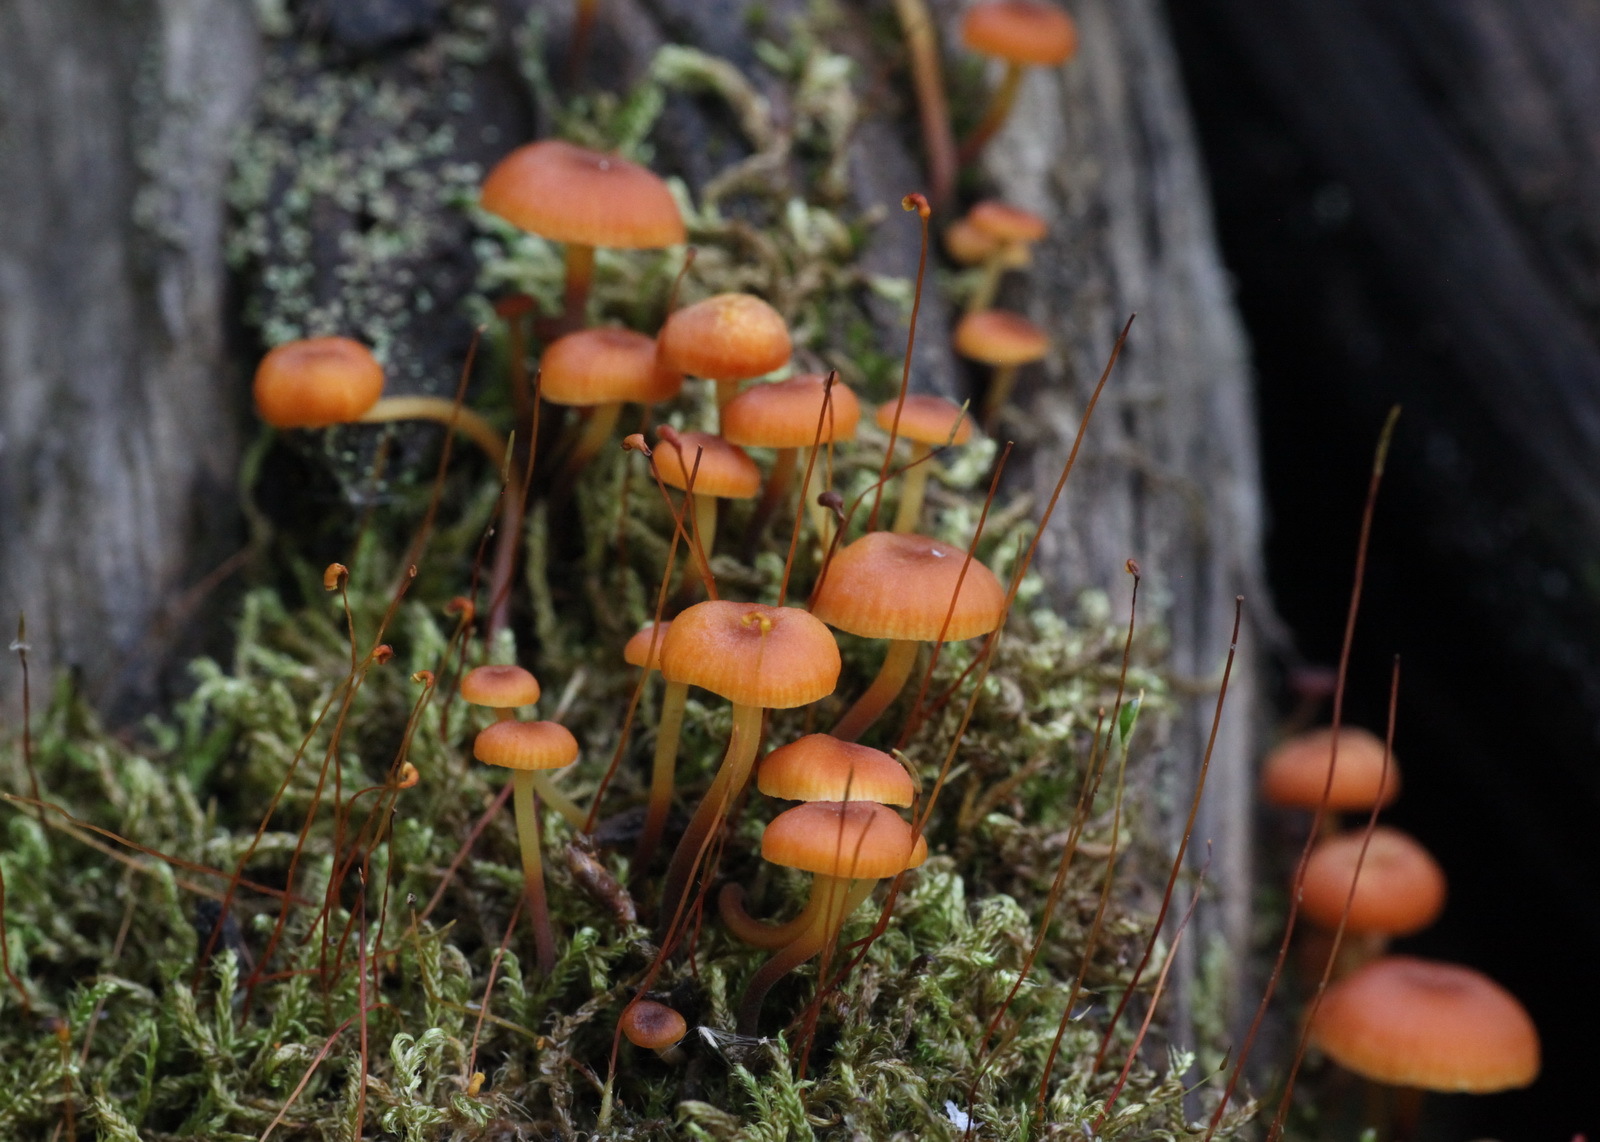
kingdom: Fungi
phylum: Basidiomycota
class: Agaricomycetes
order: Agaricales
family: Mycenaceae
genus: Xeromphalina
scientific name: Xeromphalina campanella
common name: Pinewood gingertail
